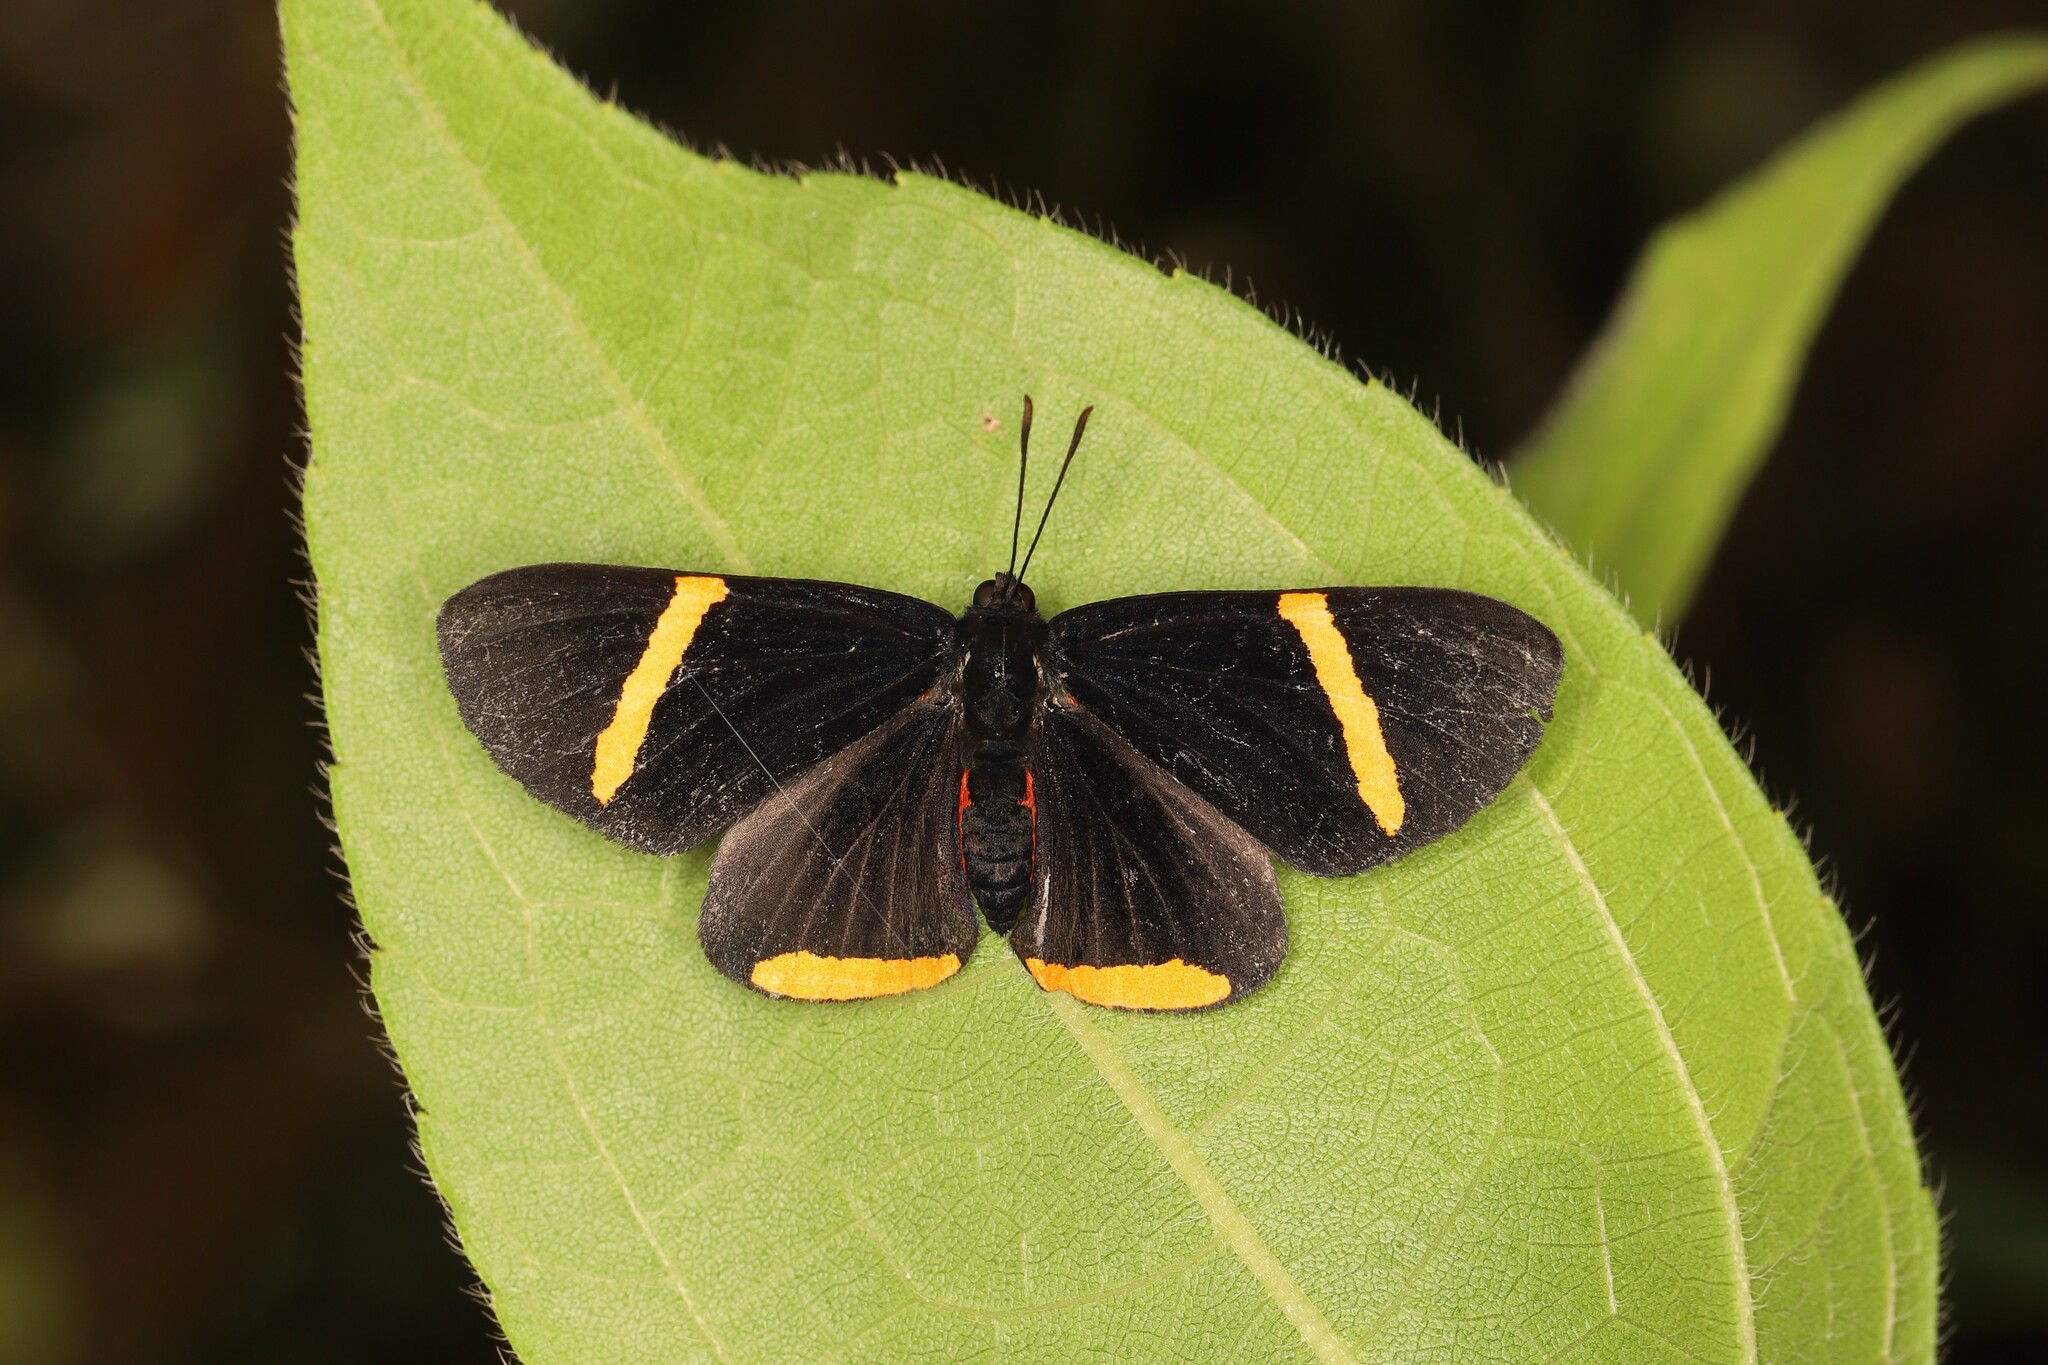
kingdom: Animalia
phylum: Arthropoda
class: Insecta
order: Lepidoptera
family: Lycaenidae
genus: Melanis
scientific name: Melanis
